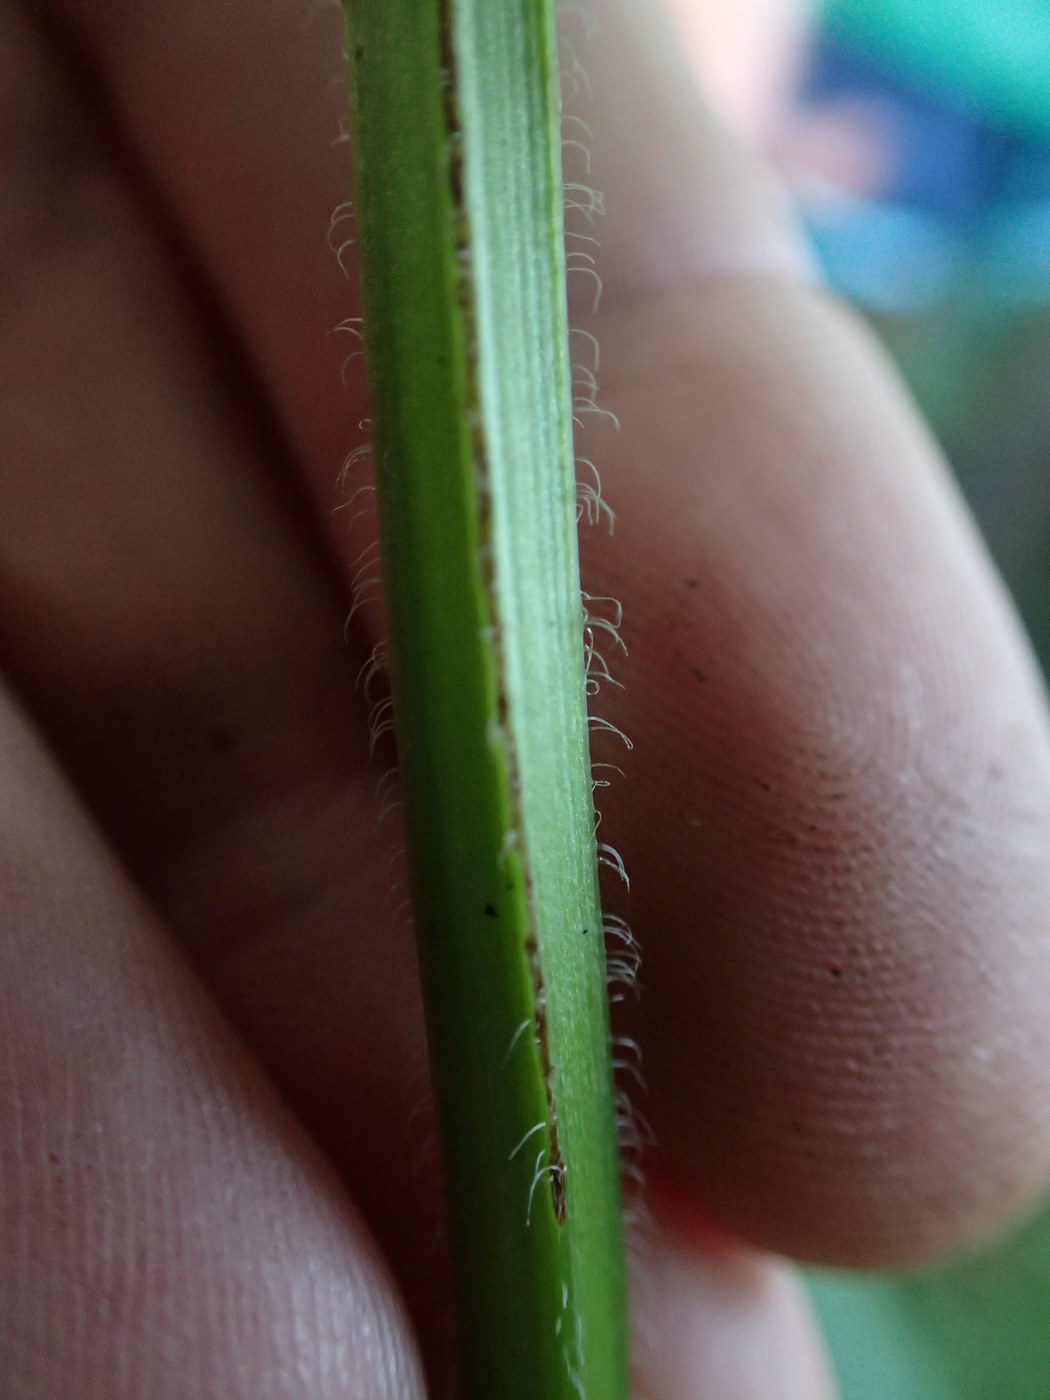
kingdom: Plantae
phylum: Tracheophyta
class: Magnoliopsida
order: Lamiales
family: Lamiaceae
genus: Agastache
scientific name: Agastache scrophulariifolia
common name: Figwort giant hyssop
